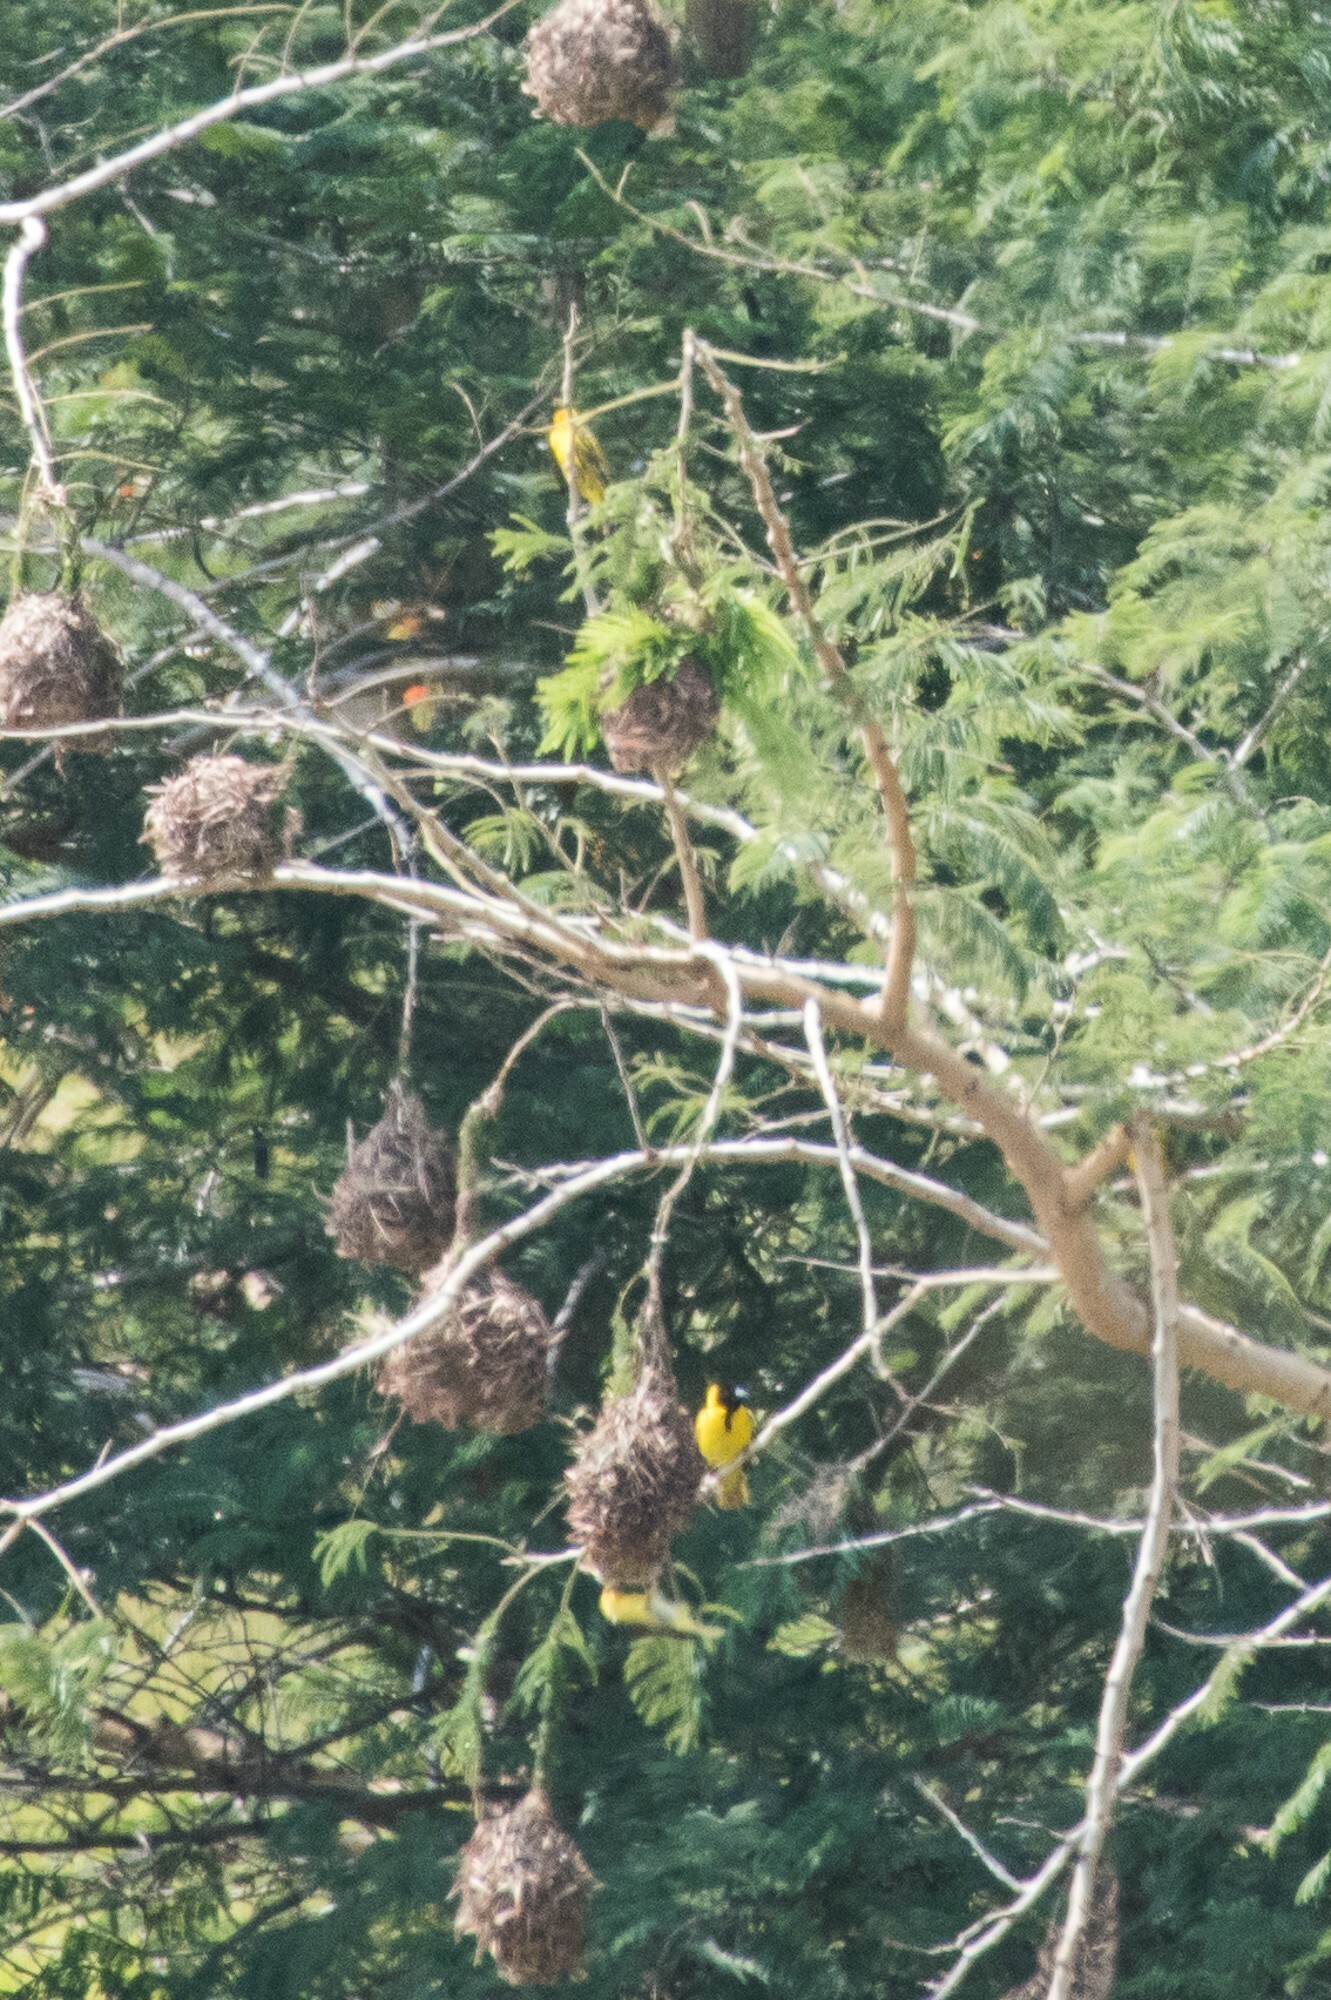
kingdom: Animalia
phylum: Chordata
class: Aves
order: Passeriformes
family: Ploceidae
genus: Ploceus
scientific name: Ploceus velatus
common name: Southern masked weaver
